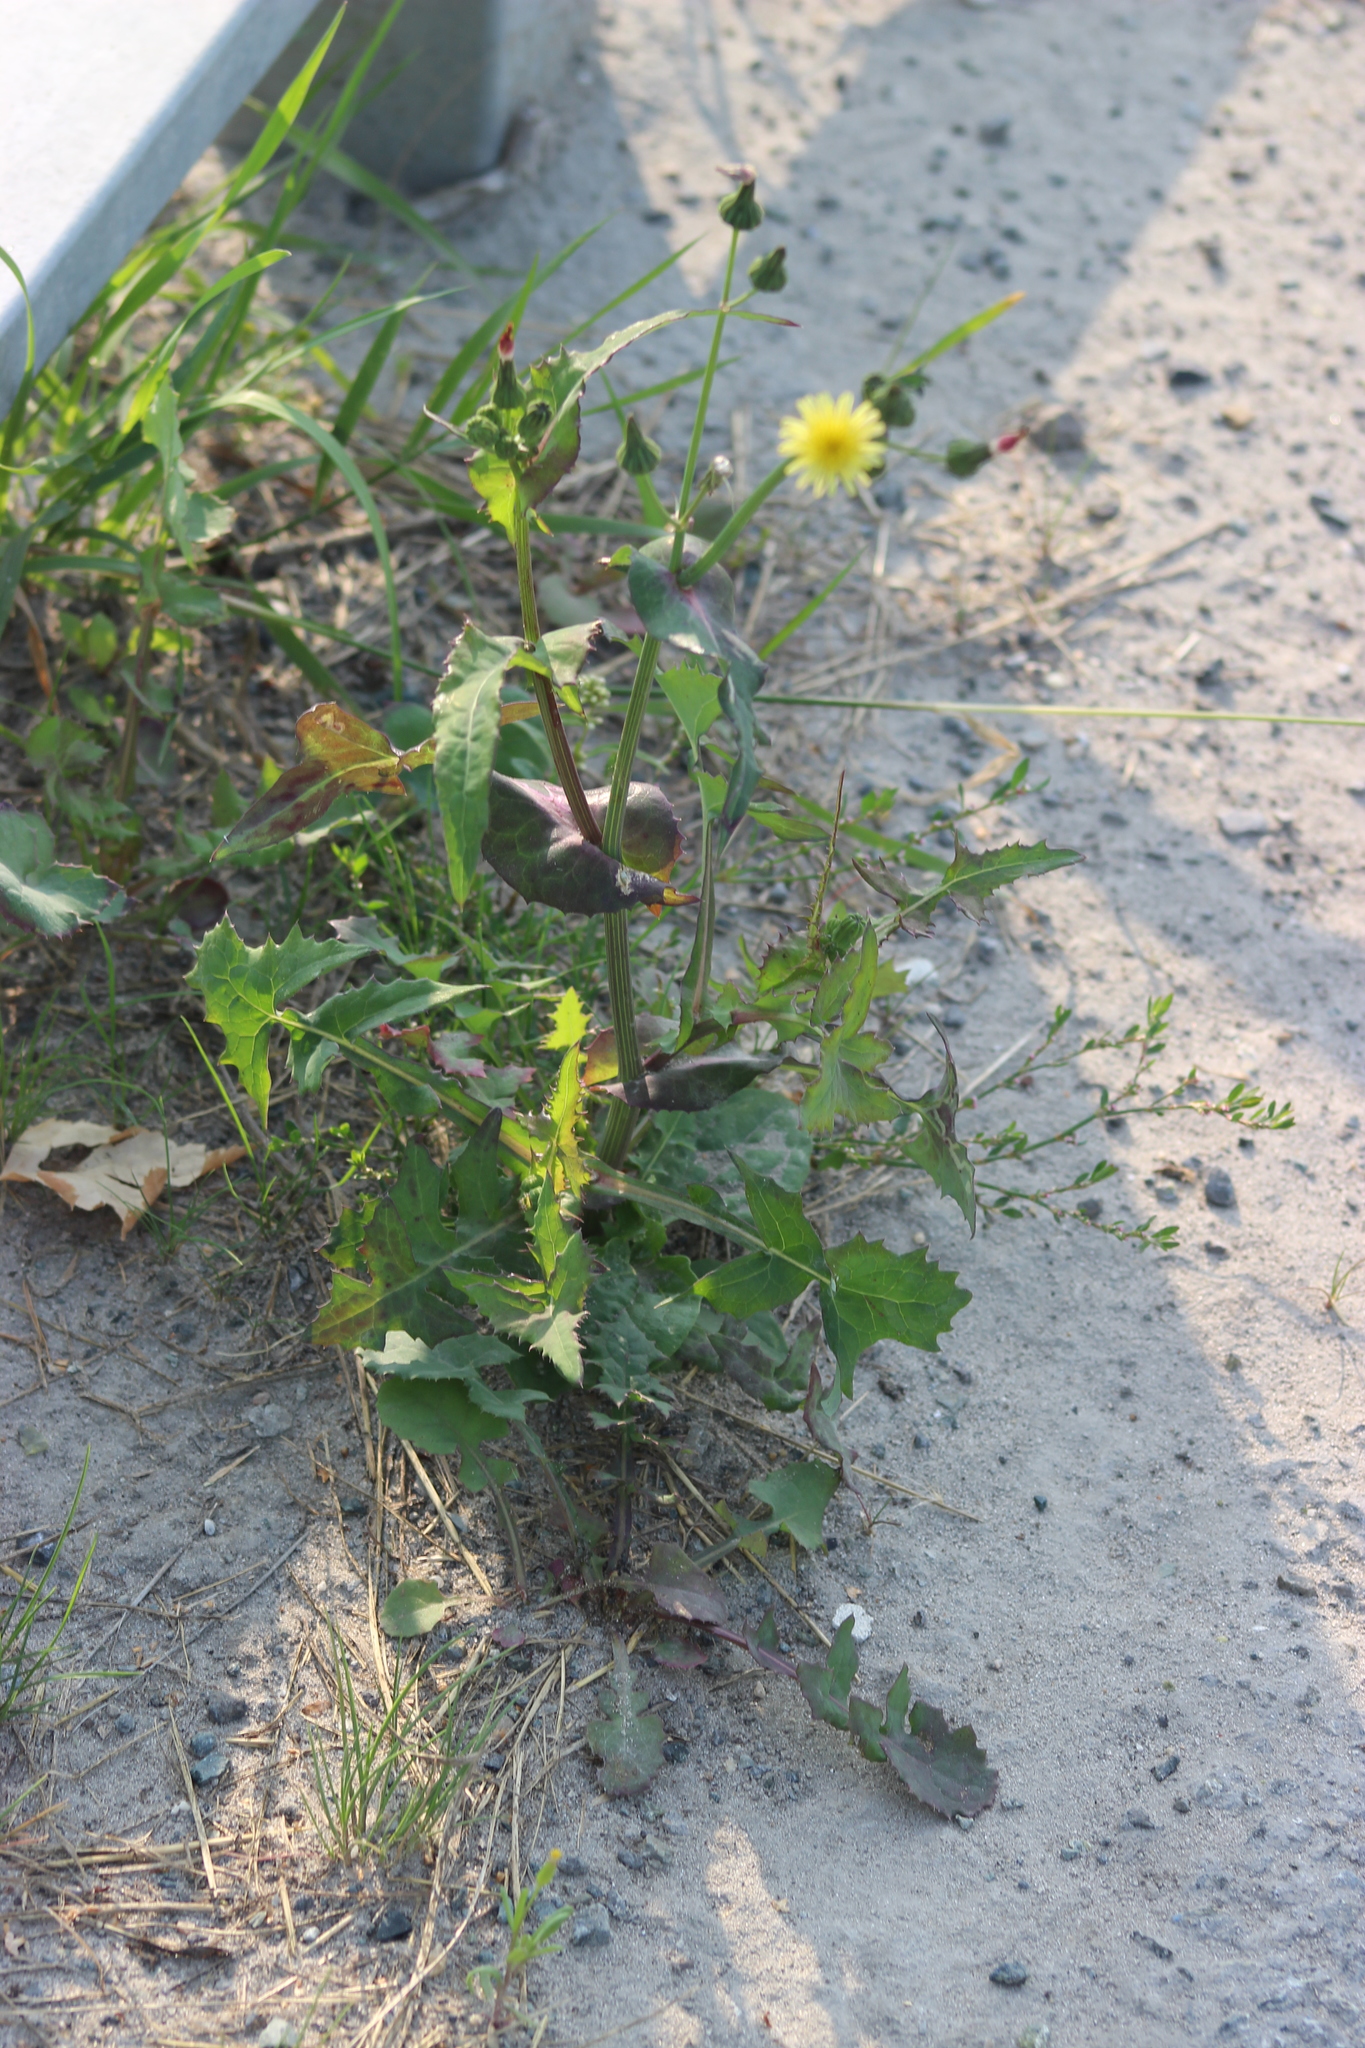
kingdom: Plantae
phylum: Tracheophyta
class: Magnoliopsida
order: Asterales
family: Asteraceae
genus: Sonchus
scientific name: Sonchus oleraceus
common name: Common sowthistle
